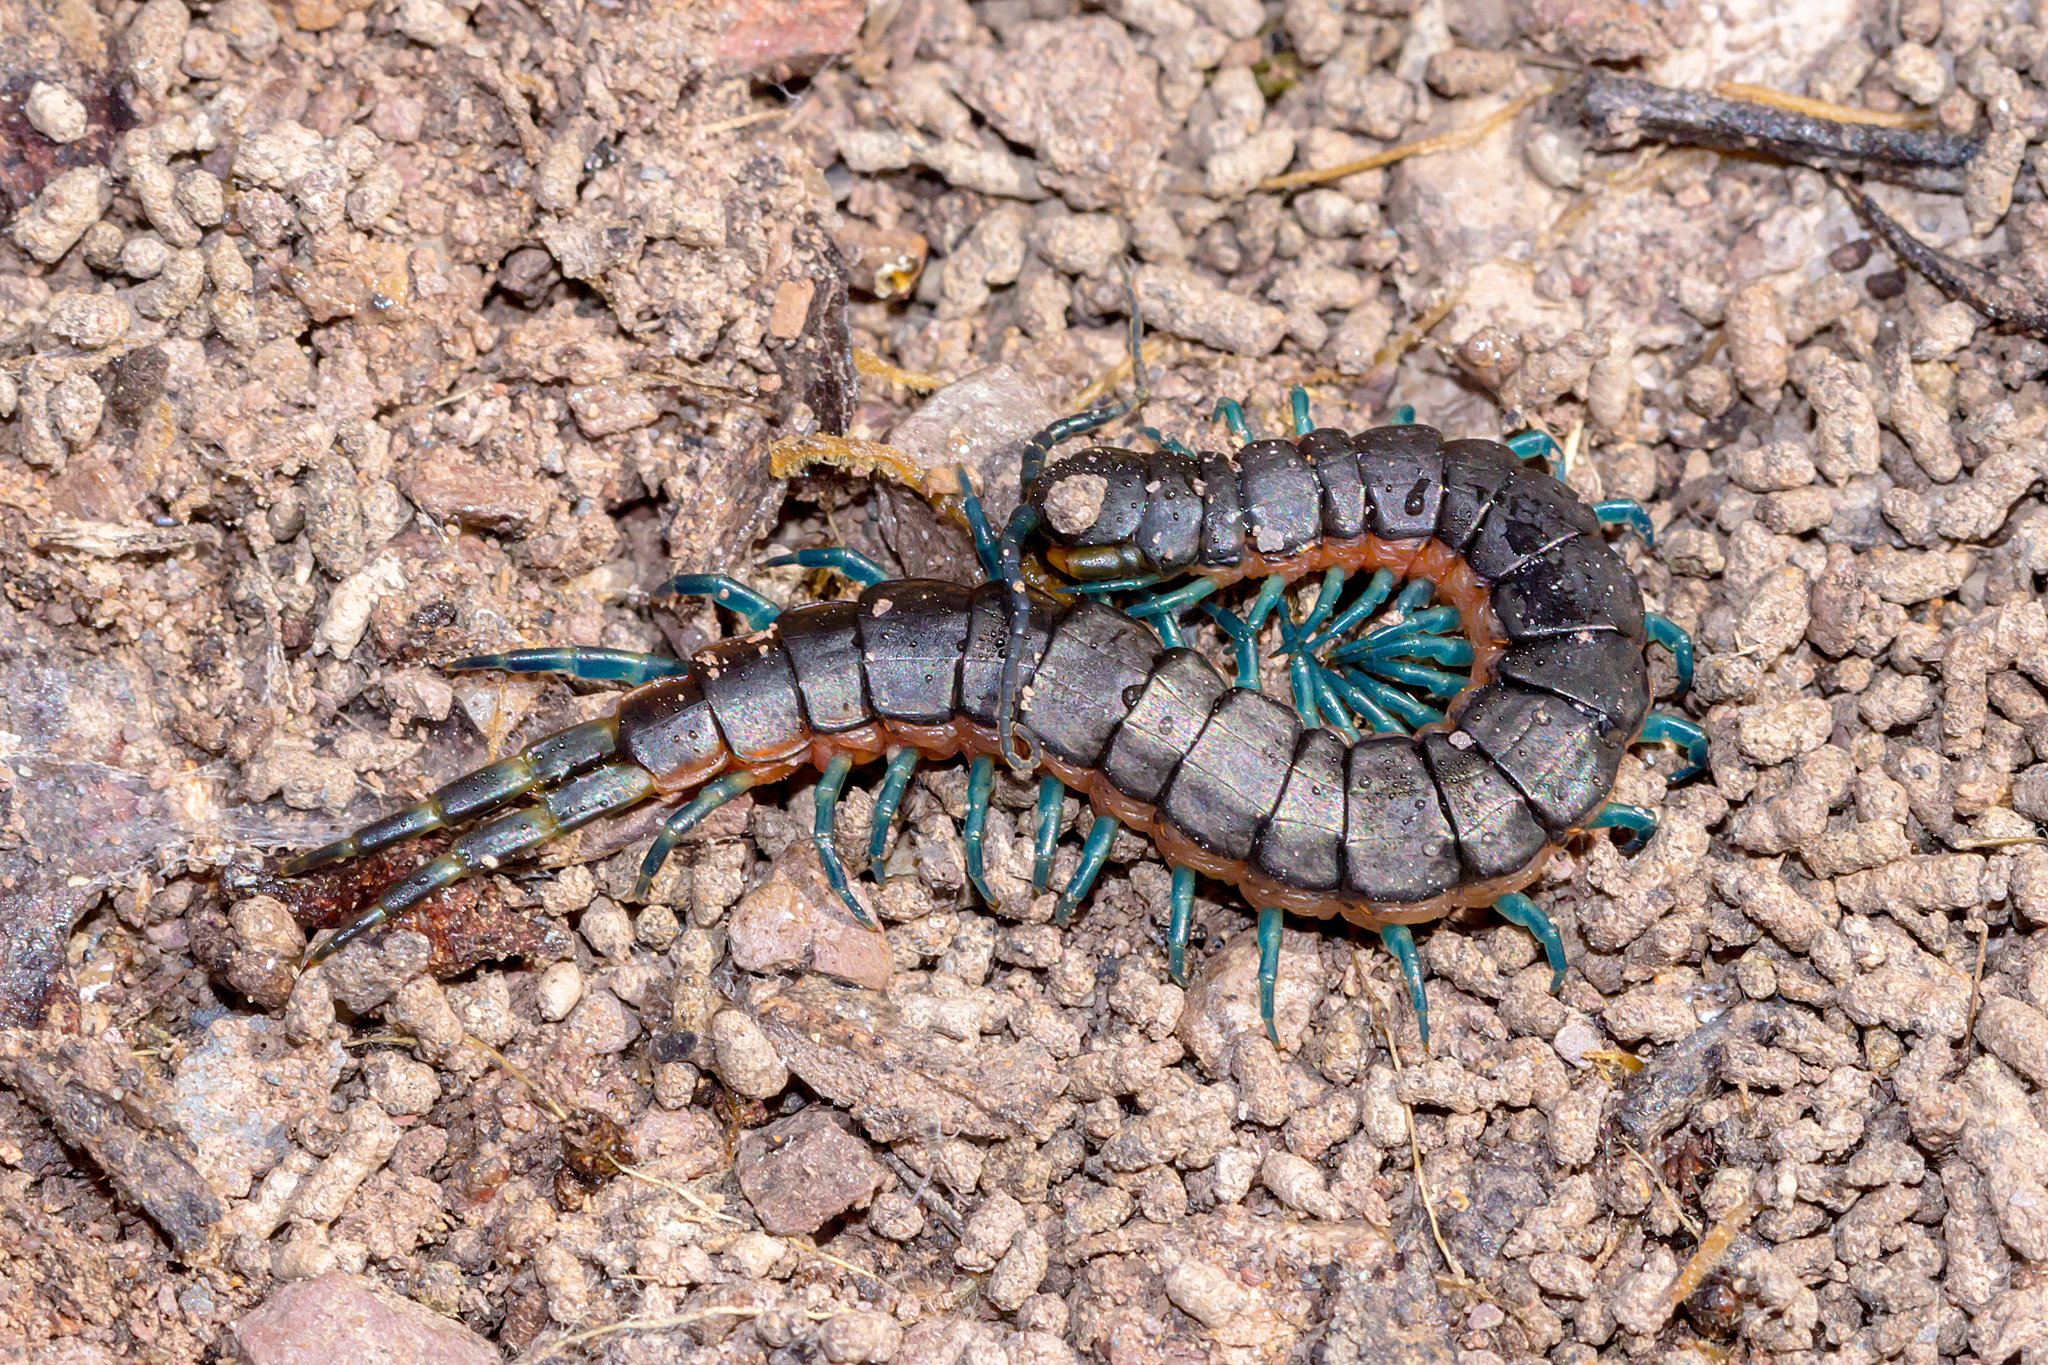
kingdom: Animalia
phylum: Arthropoda
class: Chilopoda
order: Scolopendromorpha
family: Scolopendridae
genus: Scolopendra
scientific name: Scolopendra laeta
